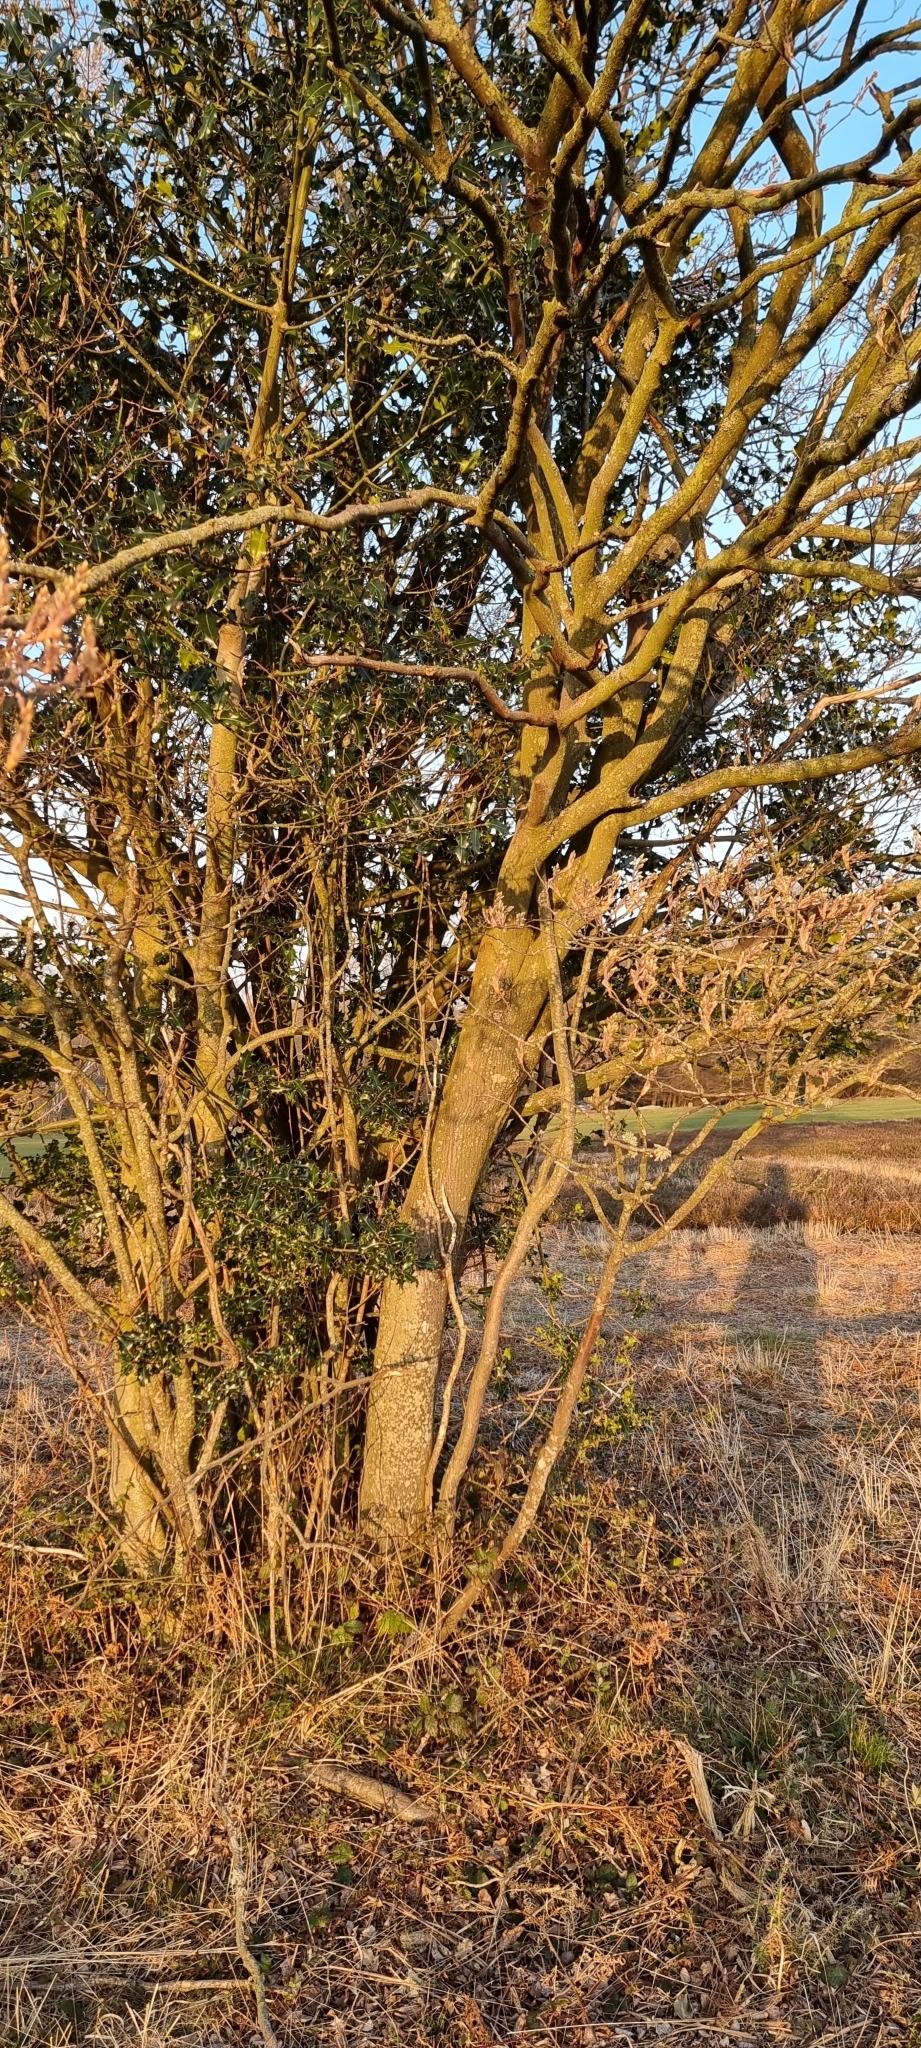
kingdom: Plantae
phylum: Tracheophyta
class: Magnoliopsida
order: Rosales
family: Rosaceae
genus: Amelanchier
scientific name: Amelanchier lamarckii
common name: Juneberry
